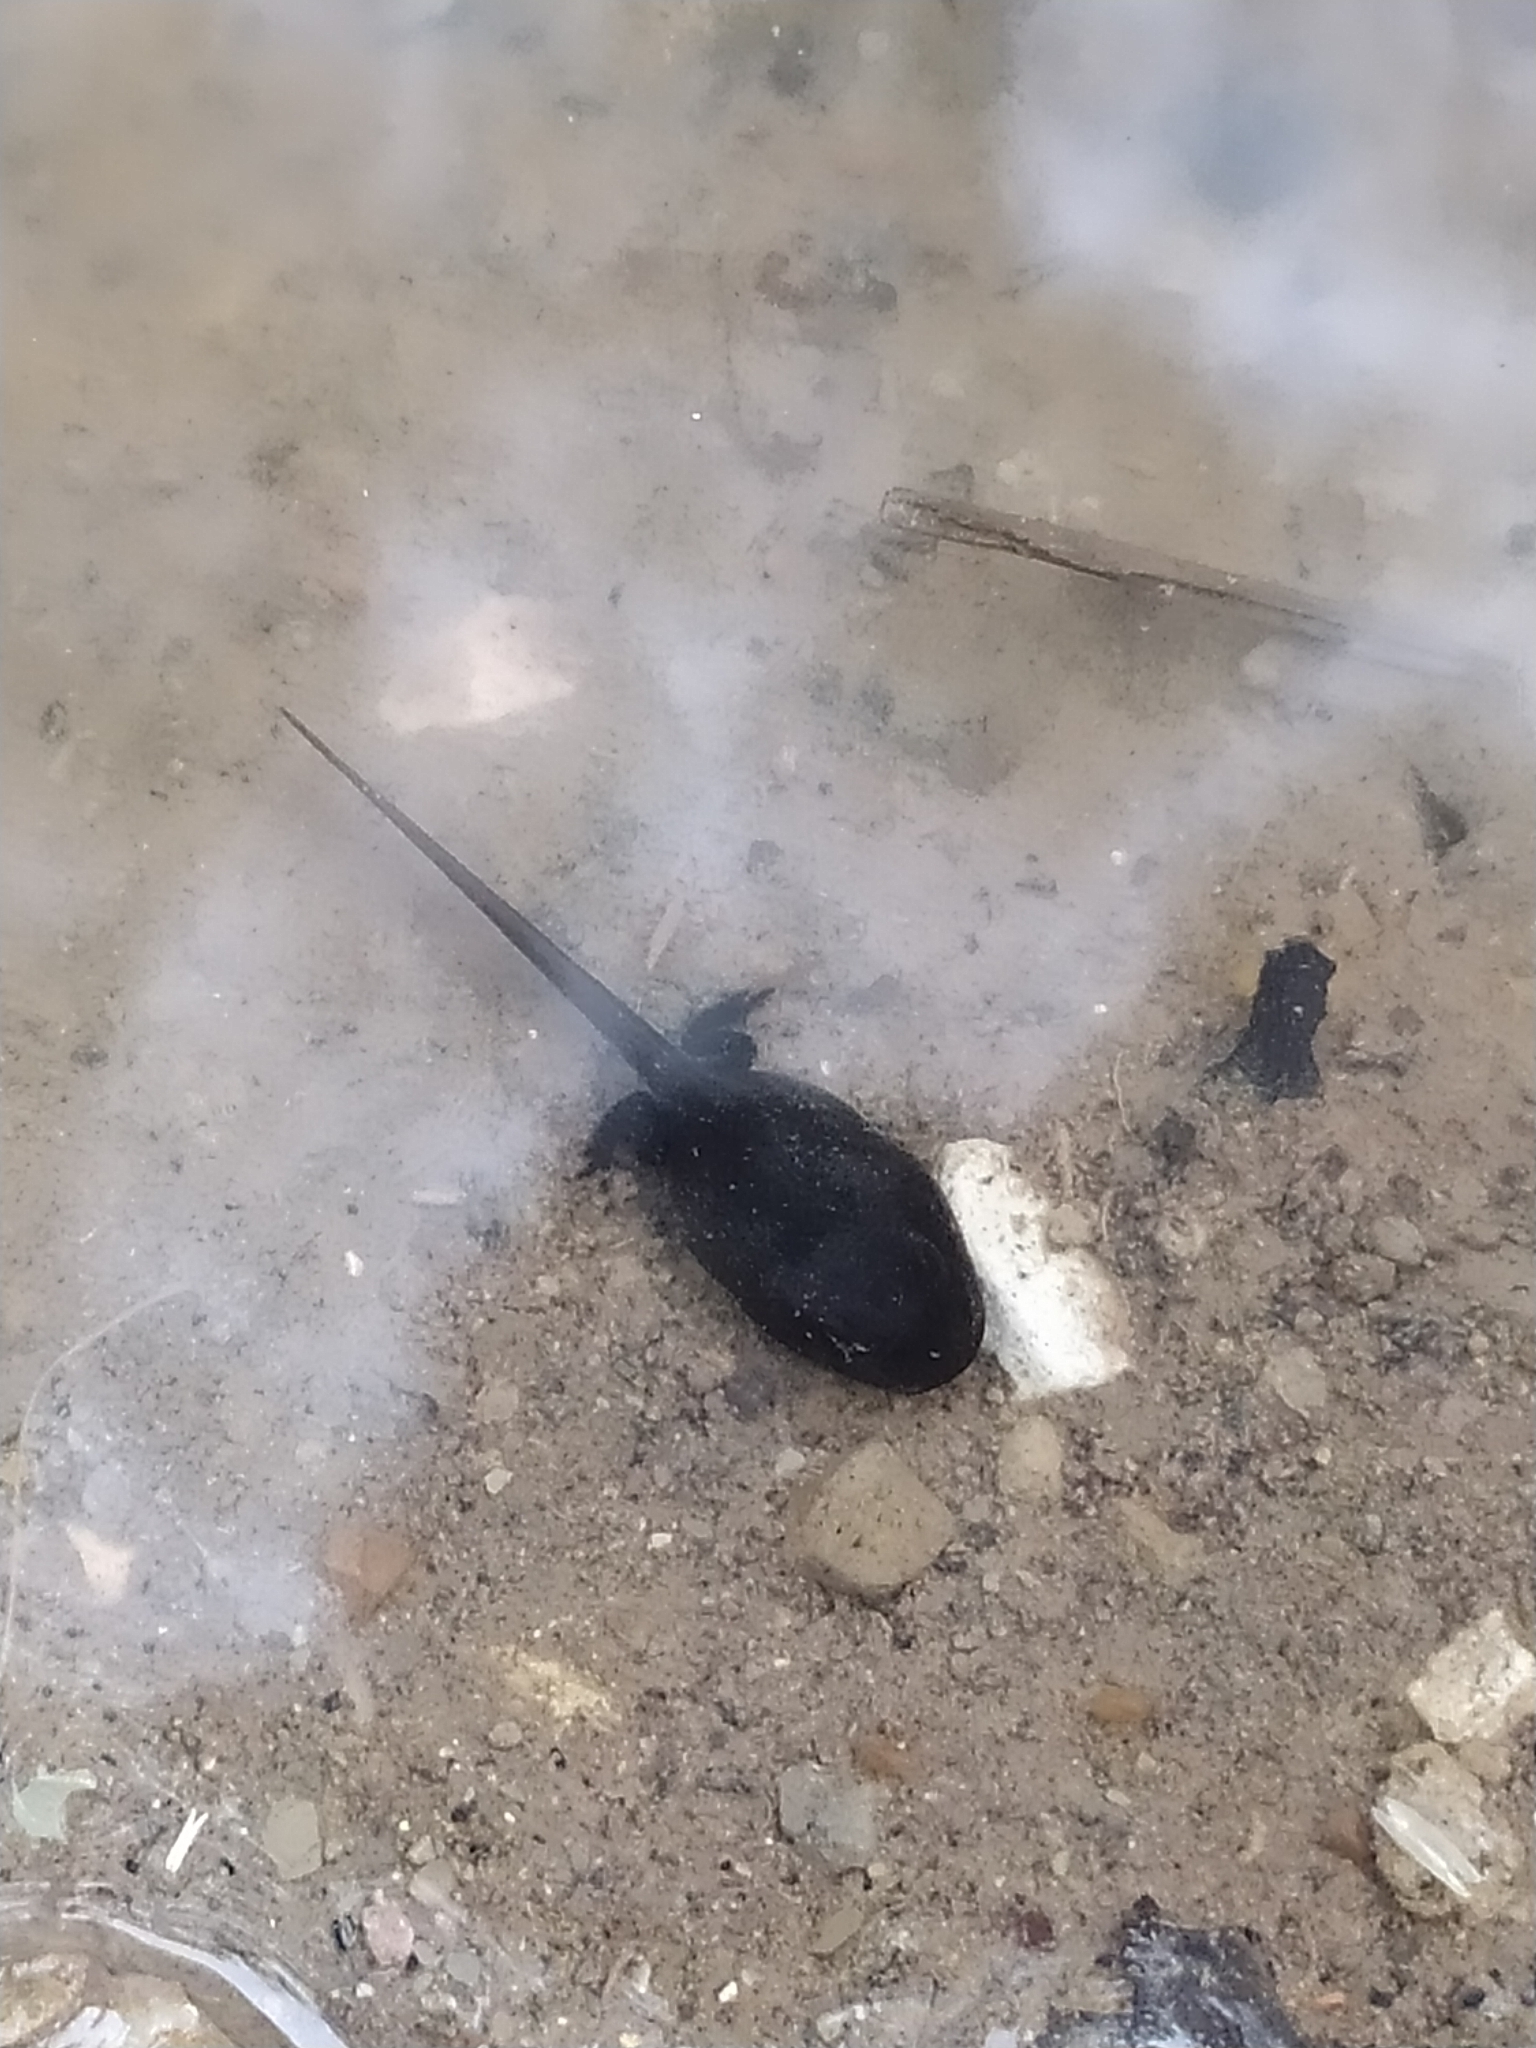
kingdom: Animalia
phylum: Chordata
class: Amphibia
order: Anura
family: Bufonidae
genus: Bufo
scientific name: Bufo bufo
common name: Common toad
